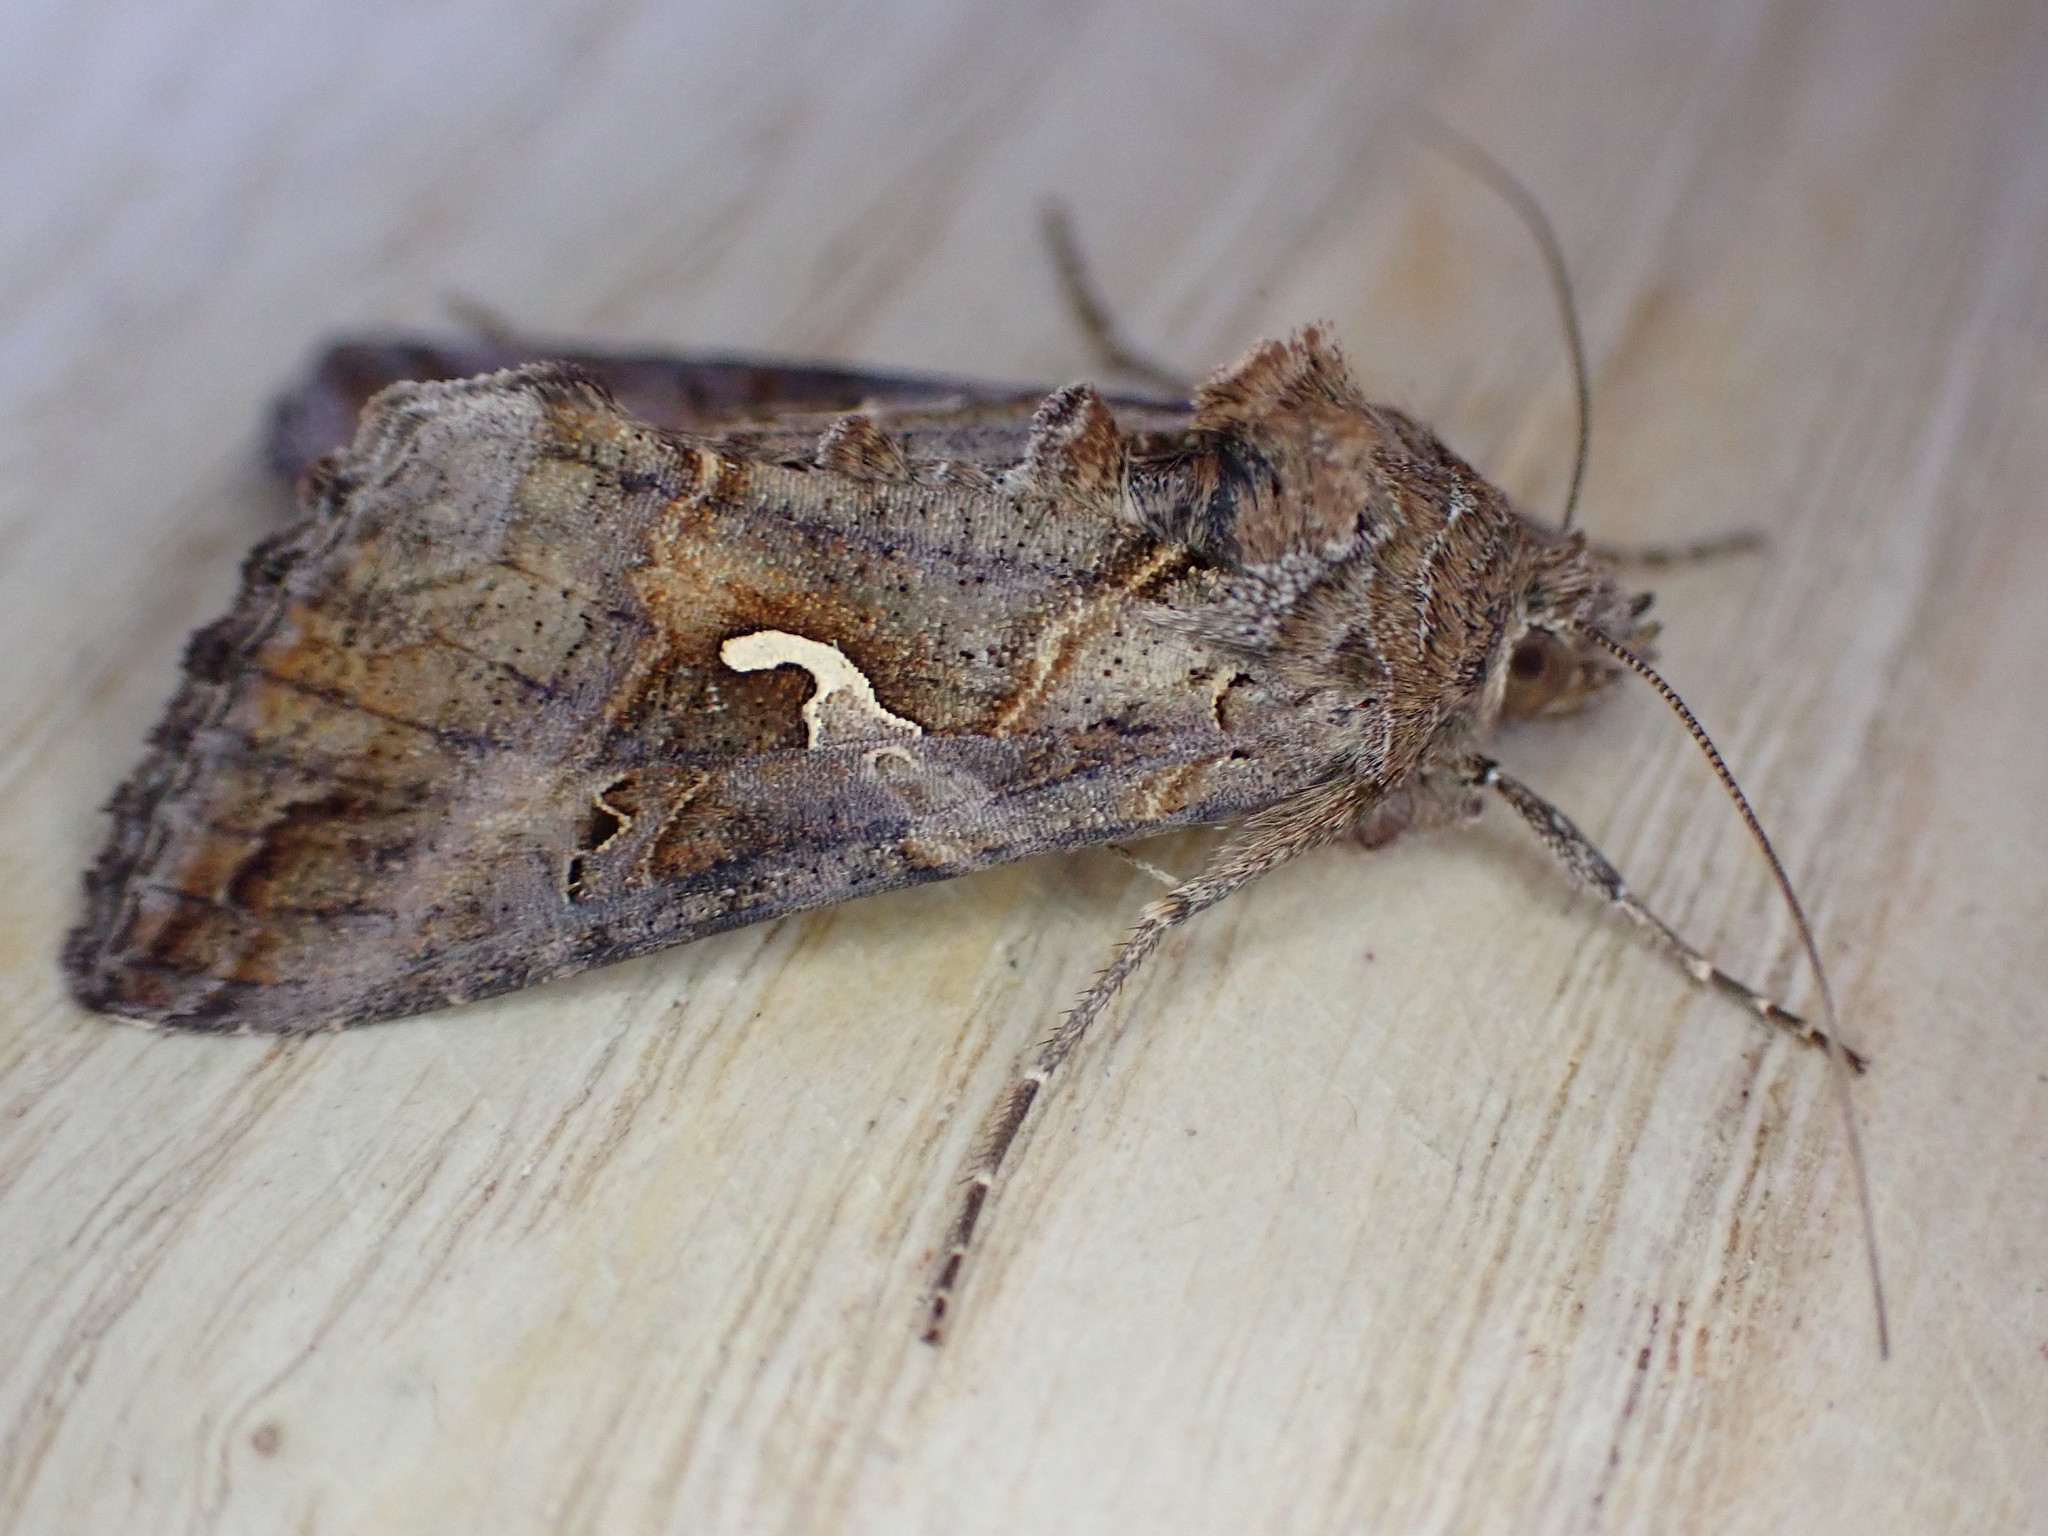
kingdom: Animalia
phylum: Arthropoda
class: Insecta
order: Lepidoptera
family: Noctuidae
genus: Autographa
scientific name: Autographa gamma
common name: Silver y
